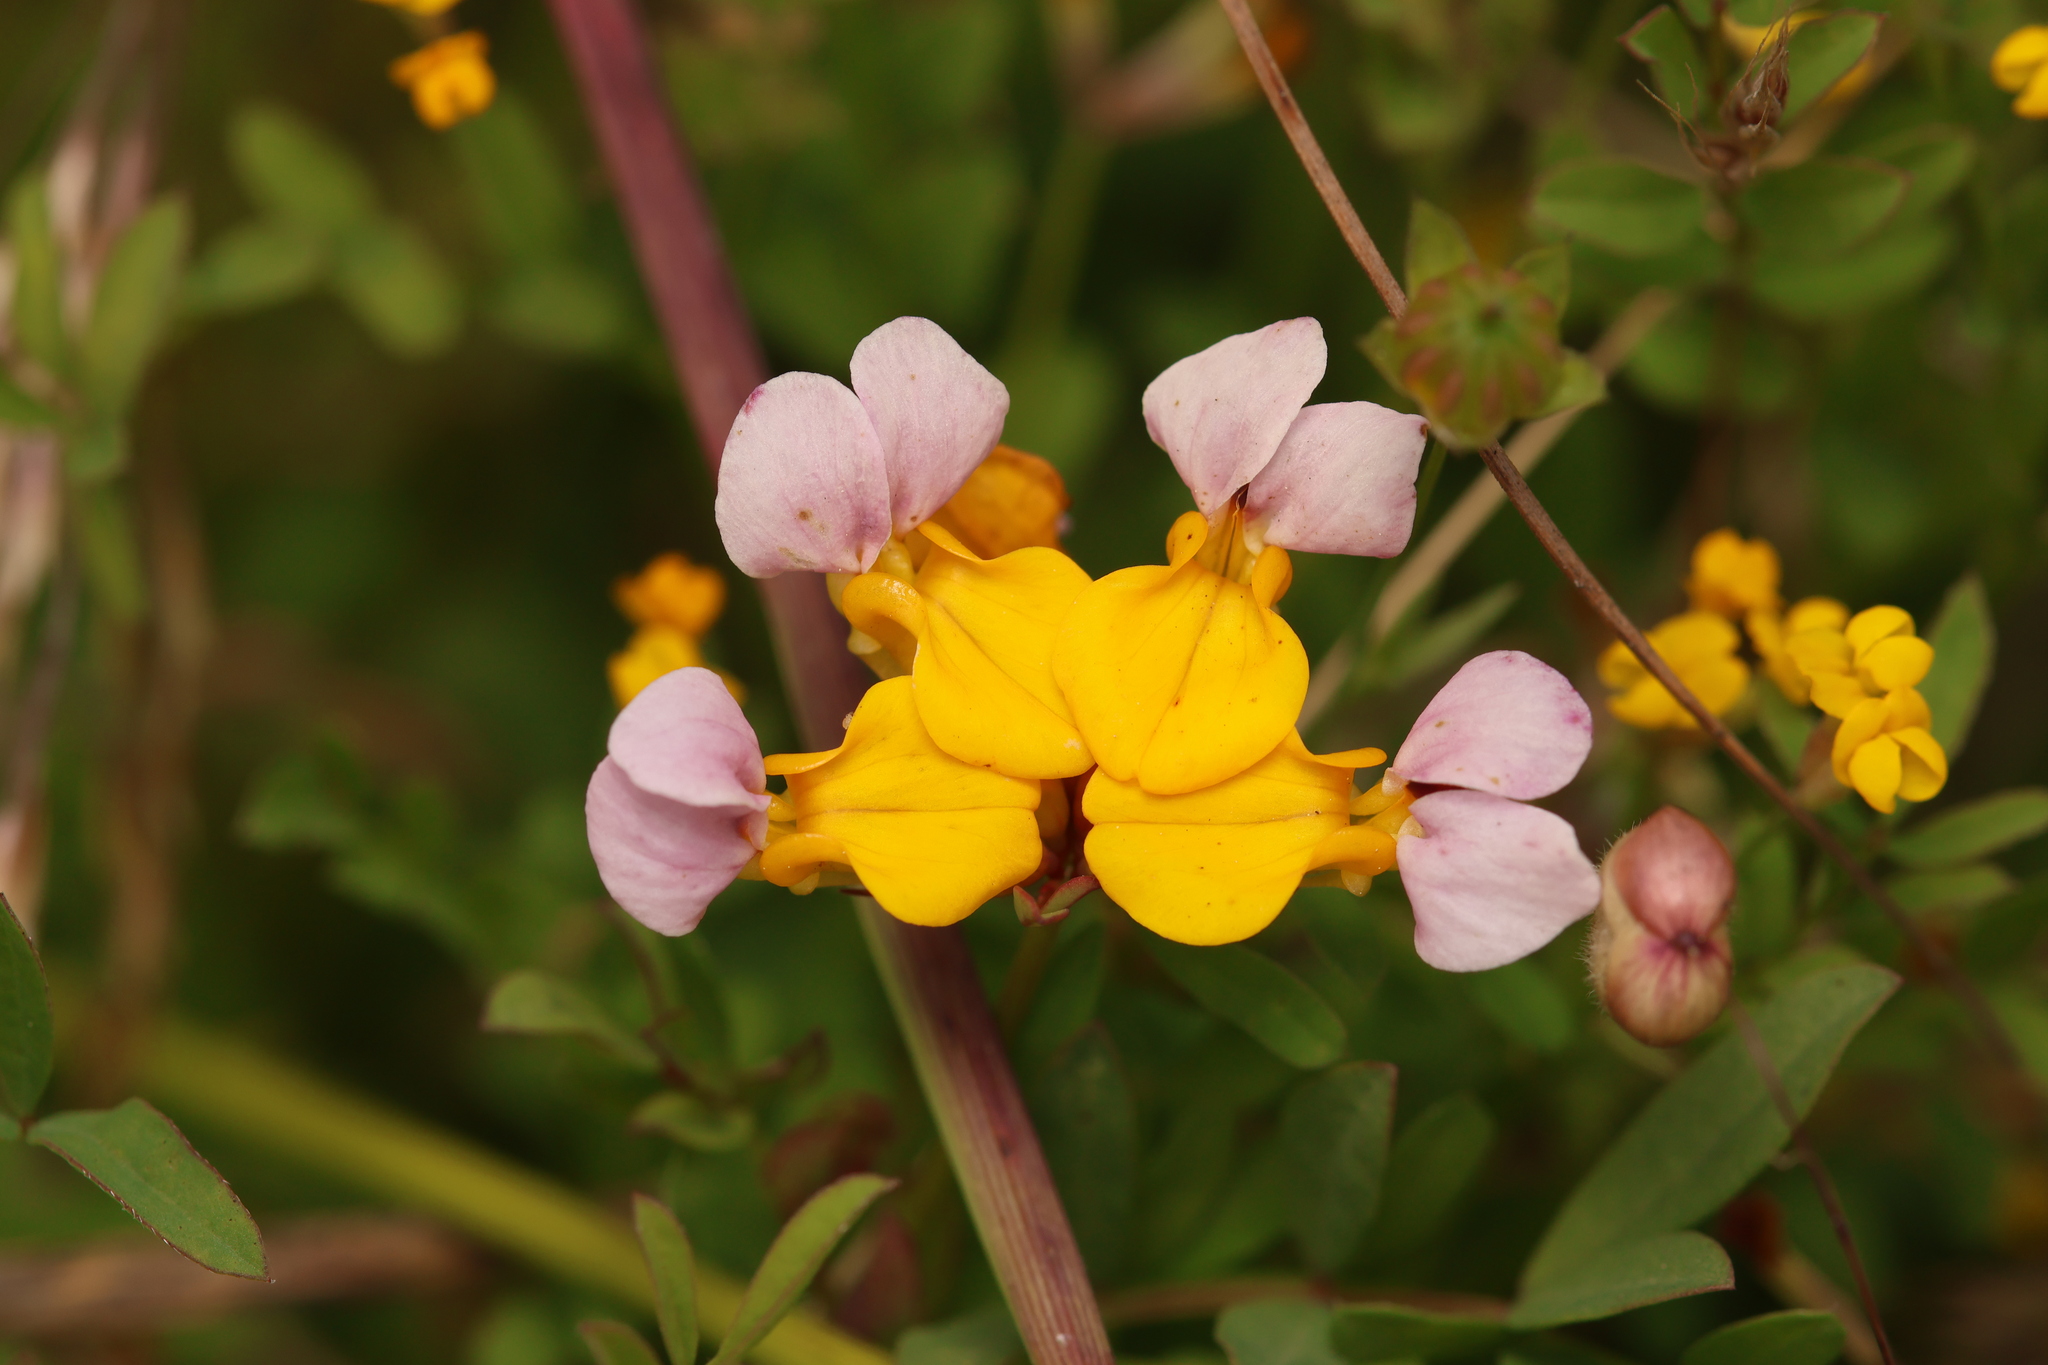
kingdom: Plantae
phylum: Tracheophyta
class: Magnoliopsida
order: Fabales
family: Fabaceae
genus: Hosackia
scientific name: Hosackia gracilis
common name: Seaside bird's-foot lotus
